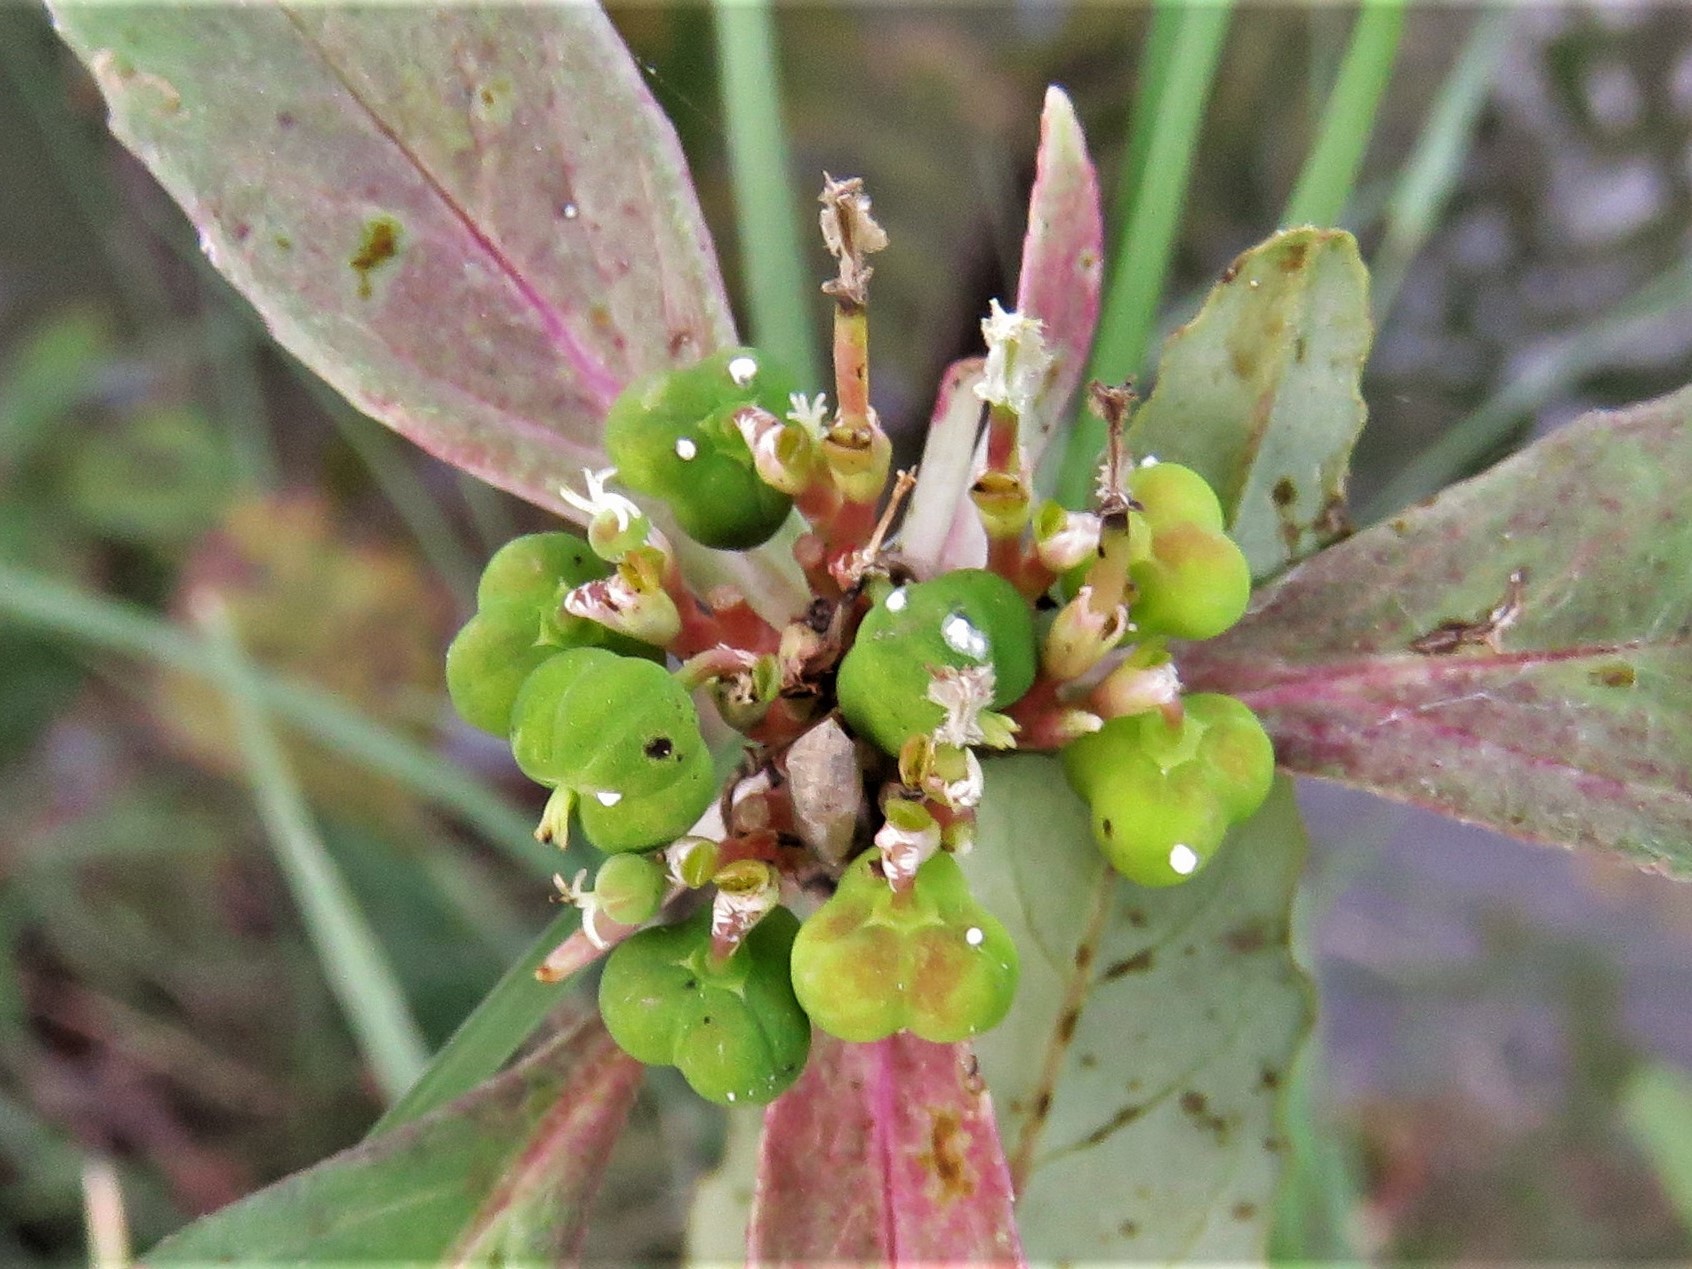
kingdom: Plantae
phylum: Tracheophyta
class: Magnoliopsida
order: Malpighiales
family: Euphorbiaceae
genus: Euphorbia
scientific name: Euphorbia dentata
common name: Dentate spurge
